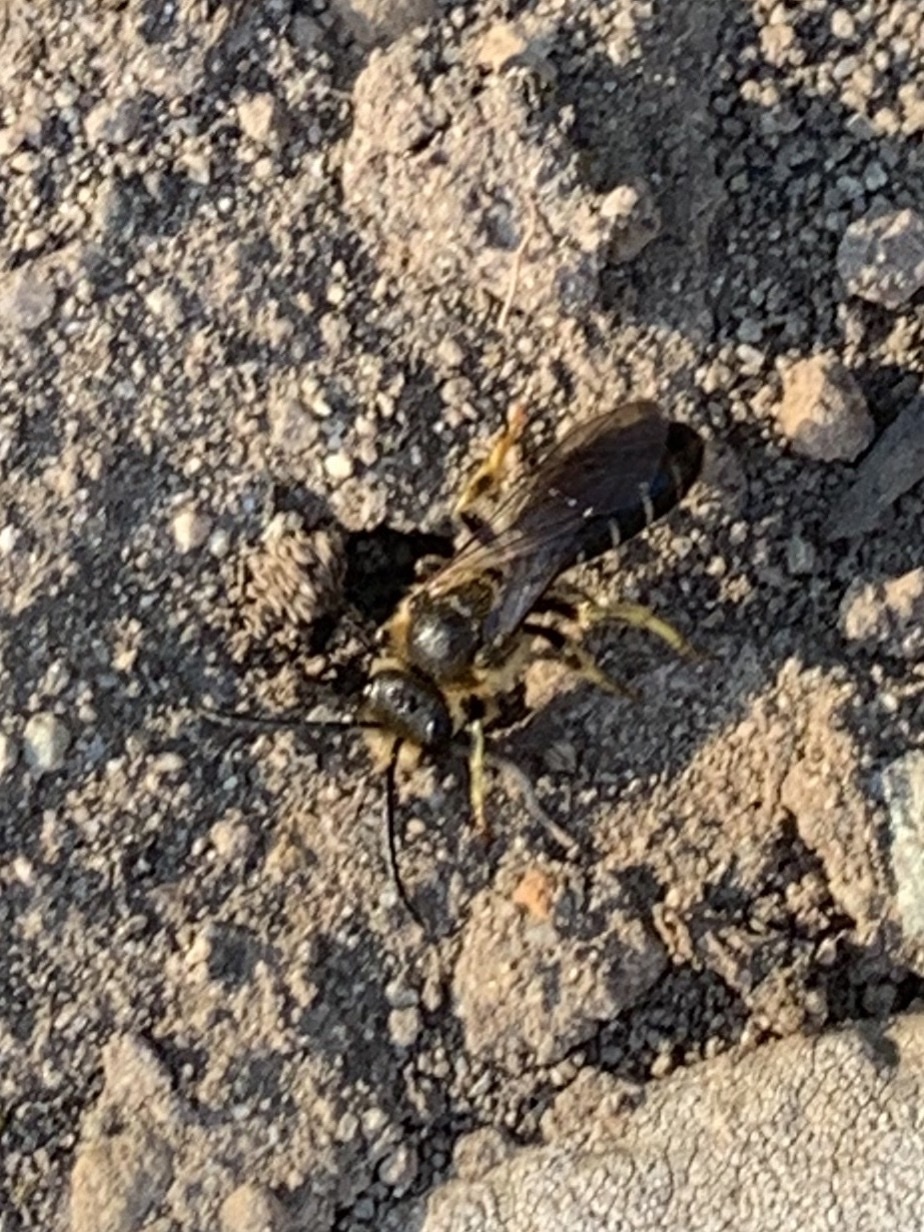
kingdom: Animalia
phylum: Arthropoda
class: Insecta
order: Hymenoptera
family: Halictidae
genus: Halictus
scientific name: Halictus rubicundus
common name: Orange-legged furrow bee
